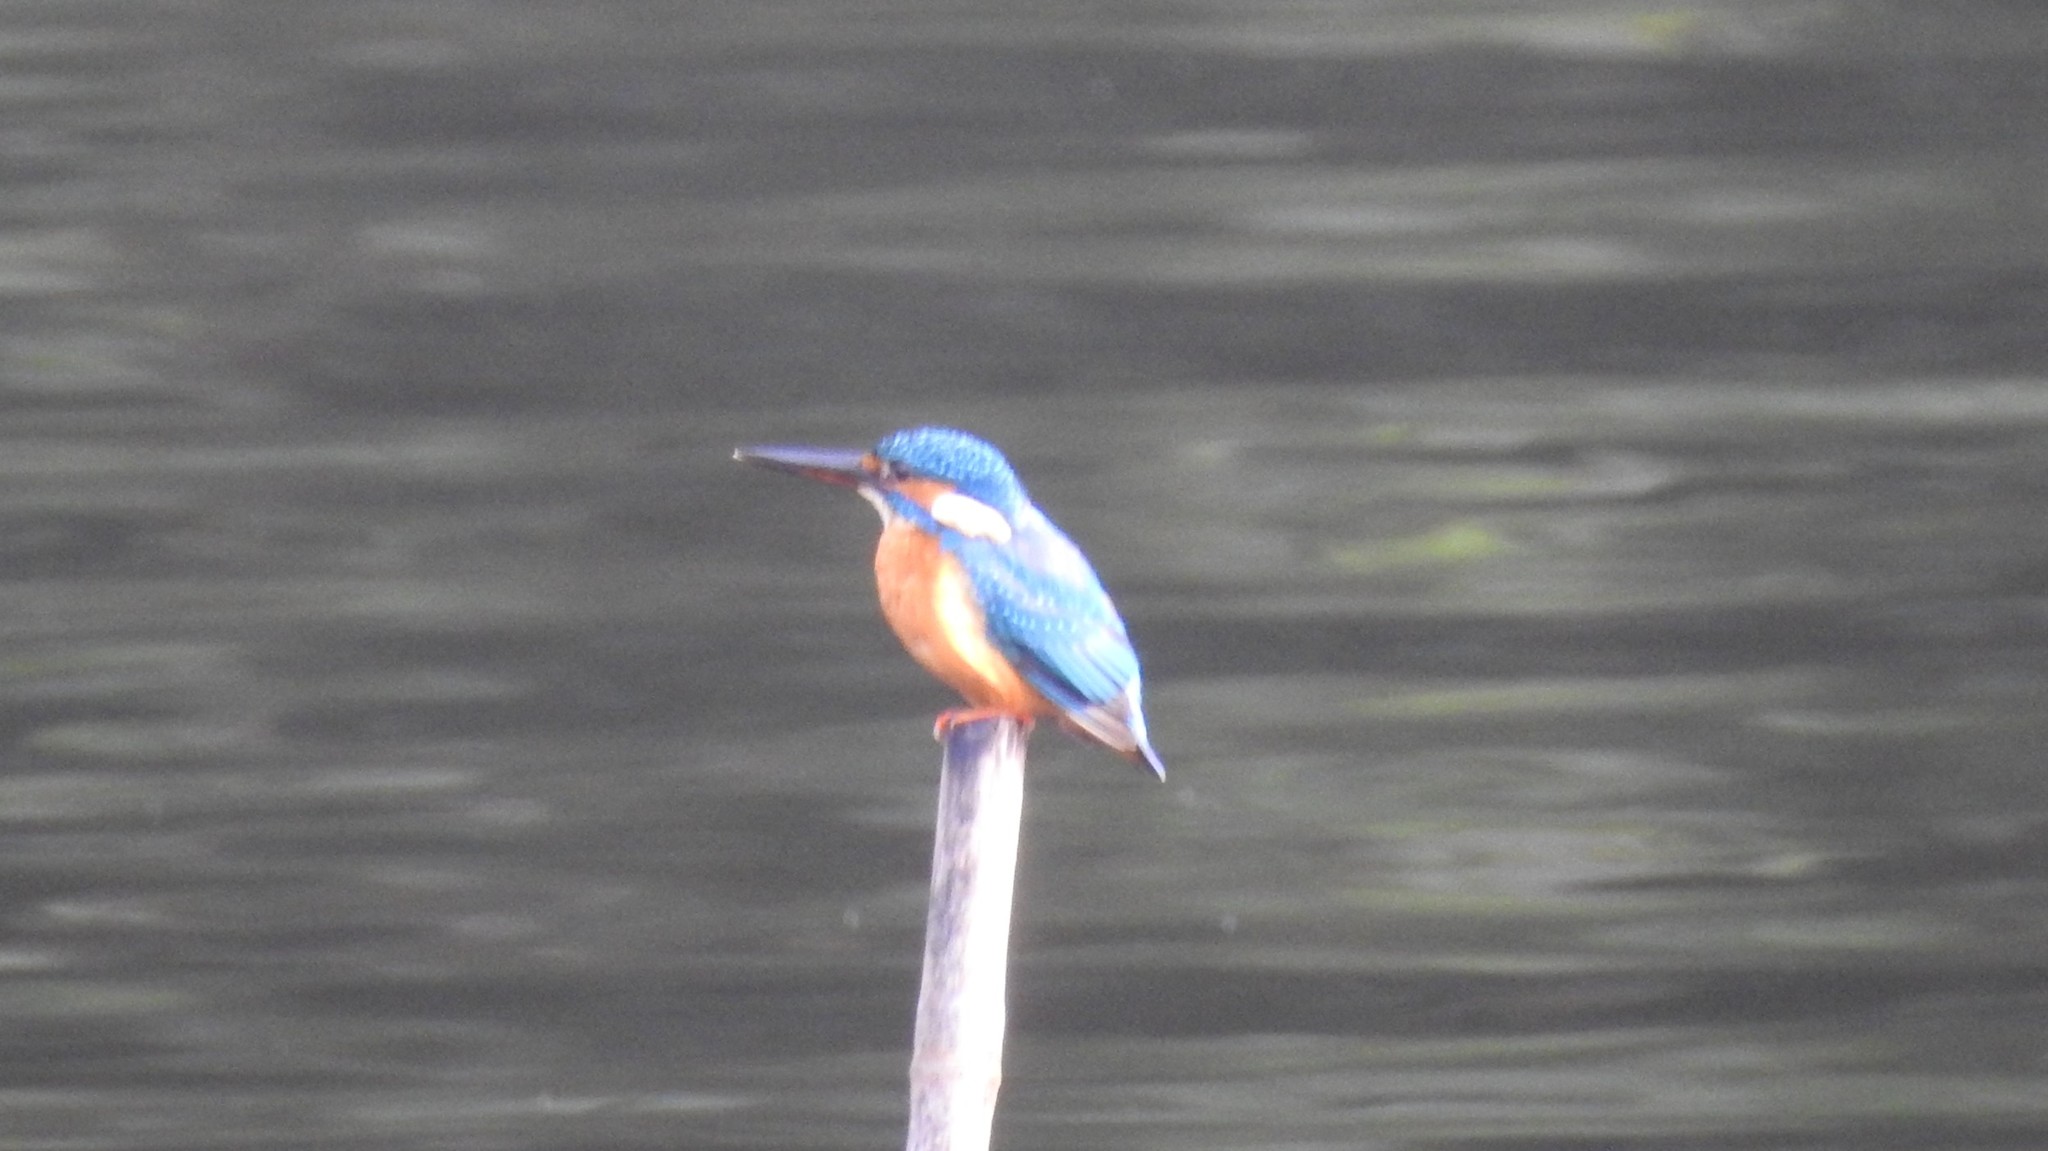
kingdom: Animalia
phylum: Chordata
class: Aves
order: Coraciiformes
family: Alcedinidae
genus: Alcedo
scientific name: Alcedo atthis
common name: Common kingfisher
